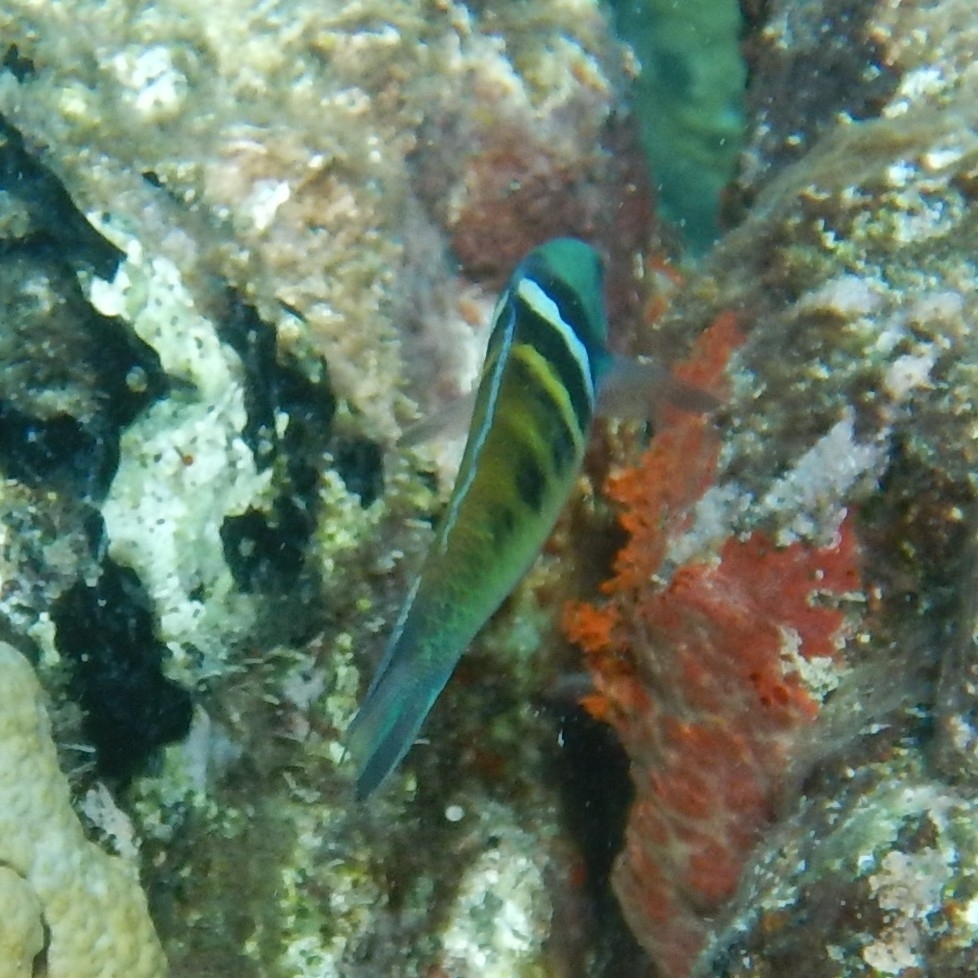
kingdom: Animalia
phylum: Chordata
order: Perciformes
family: Labridae
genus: Thalassoma
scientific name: Thalassoma bifasciatum
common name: Bluehead wrasse
